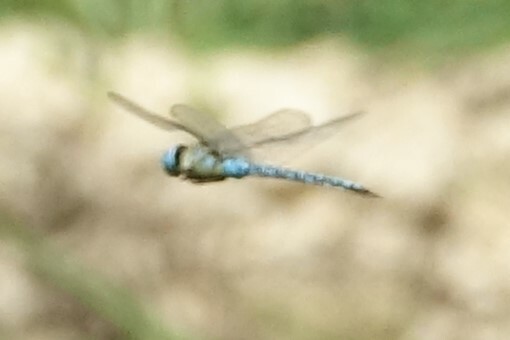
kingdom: Animalia
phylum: Arthropoda
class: Insecta
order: Odonata
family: Aeshnidae
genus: Aeshna
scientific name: Aeshna affinis
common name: Southern migrant hawker
